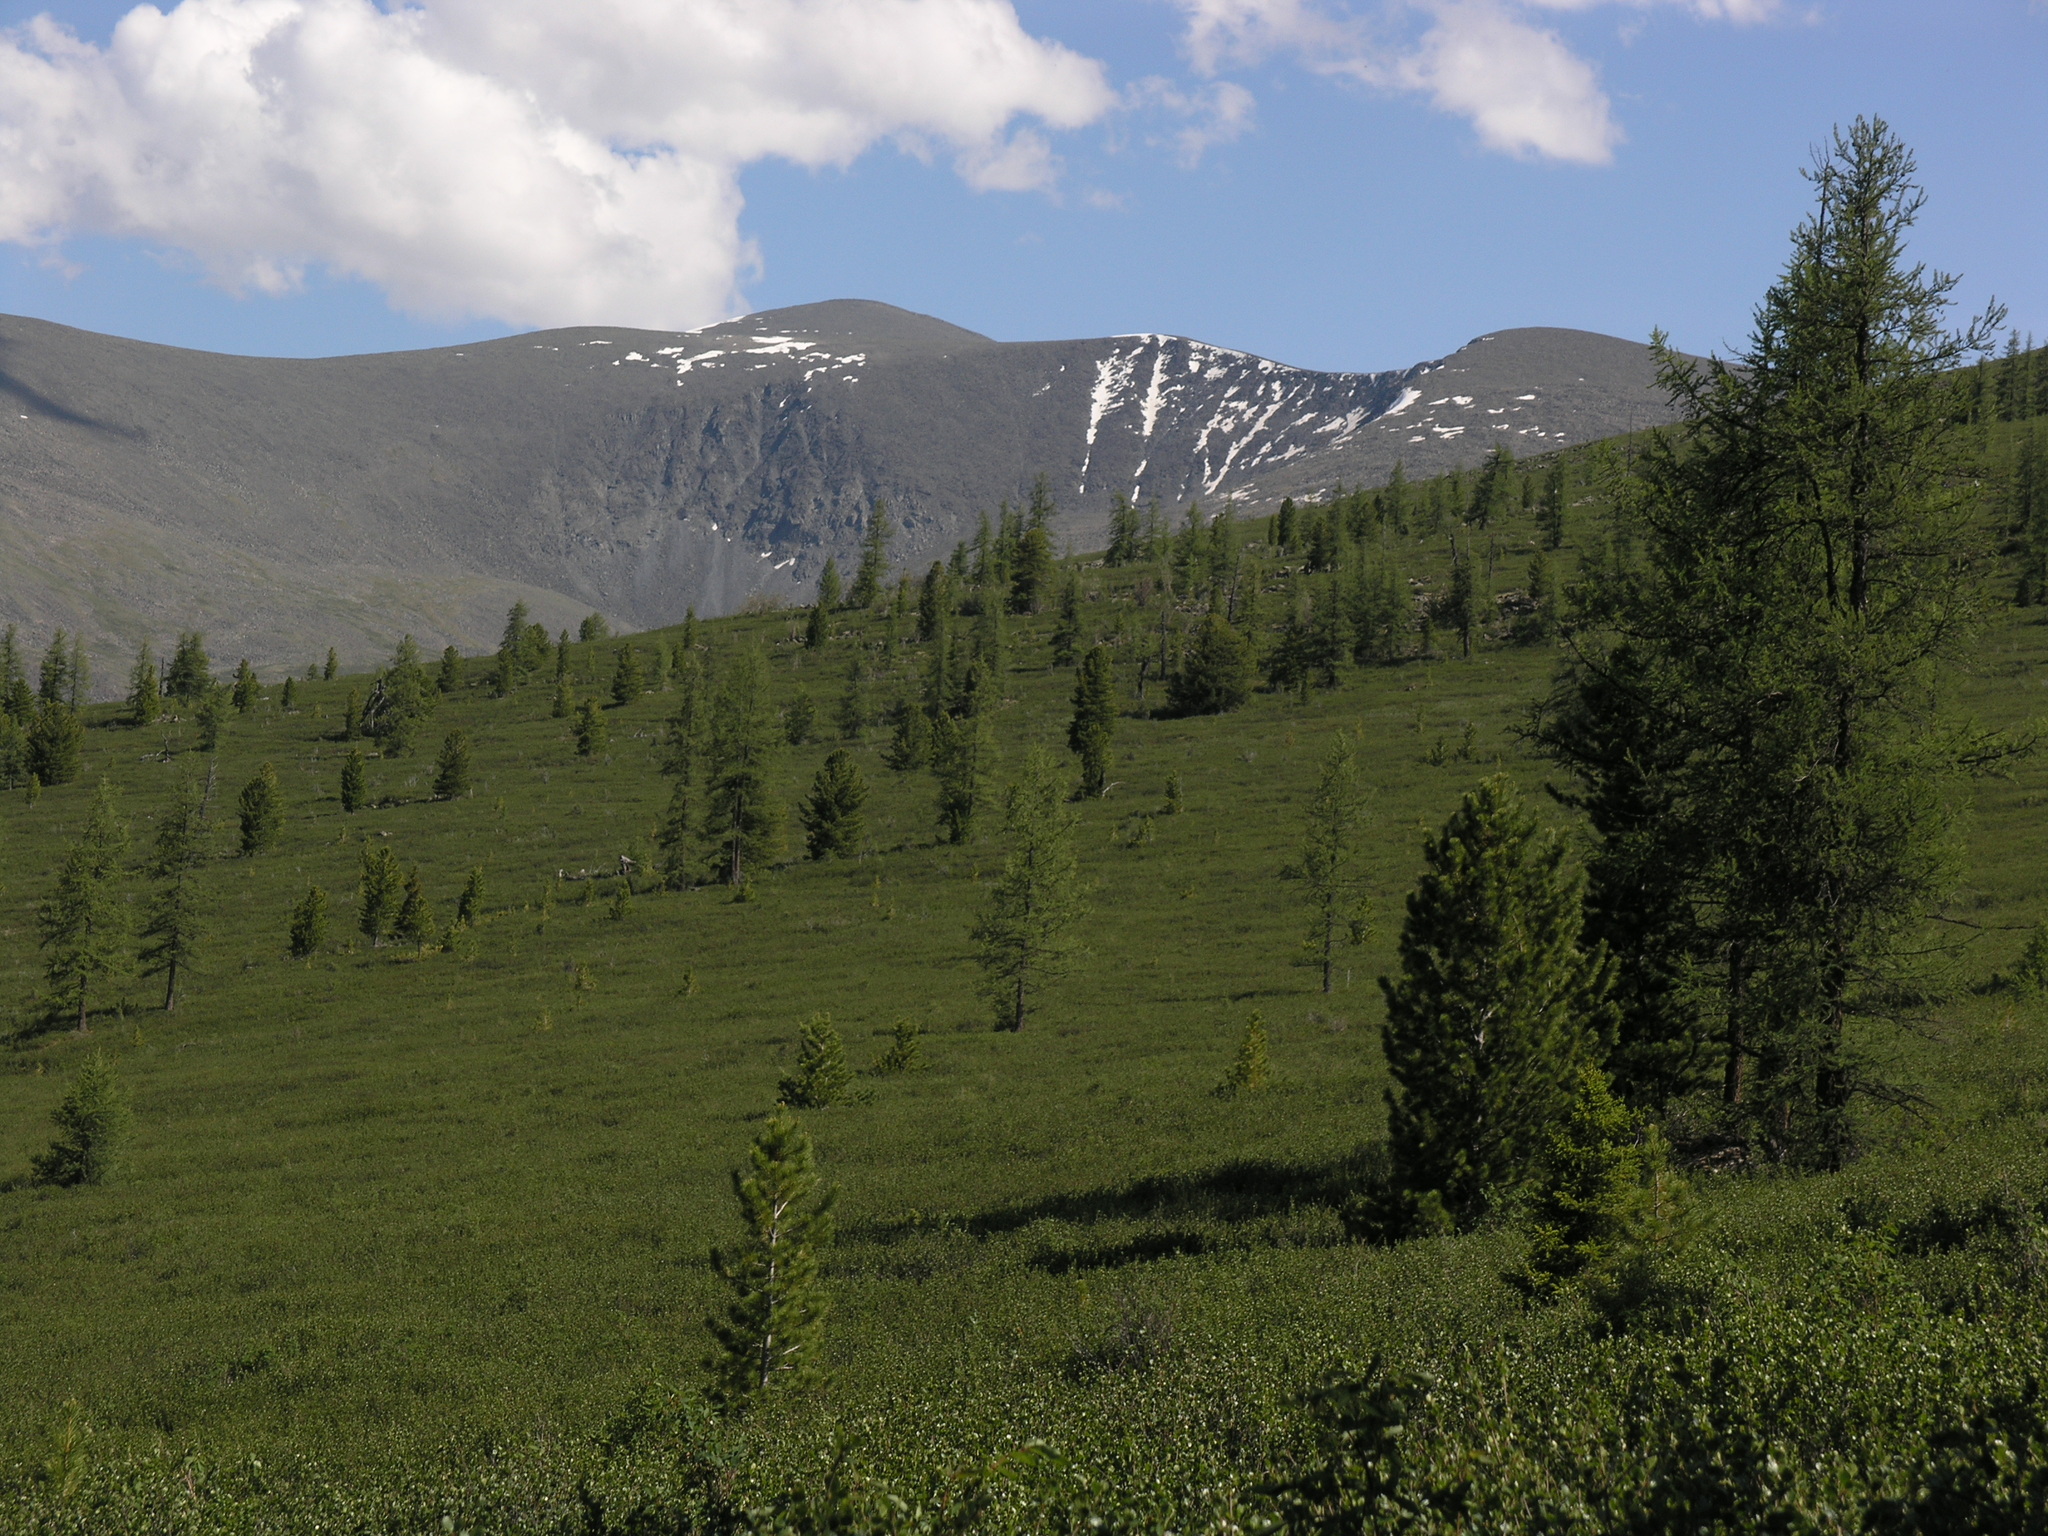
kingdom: Plantae
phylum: Tracheophyta
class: Pinopsida
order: Pinales
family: Pinaceae
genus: Pinus
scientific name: Pinus sibirica
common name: Siberian pine
